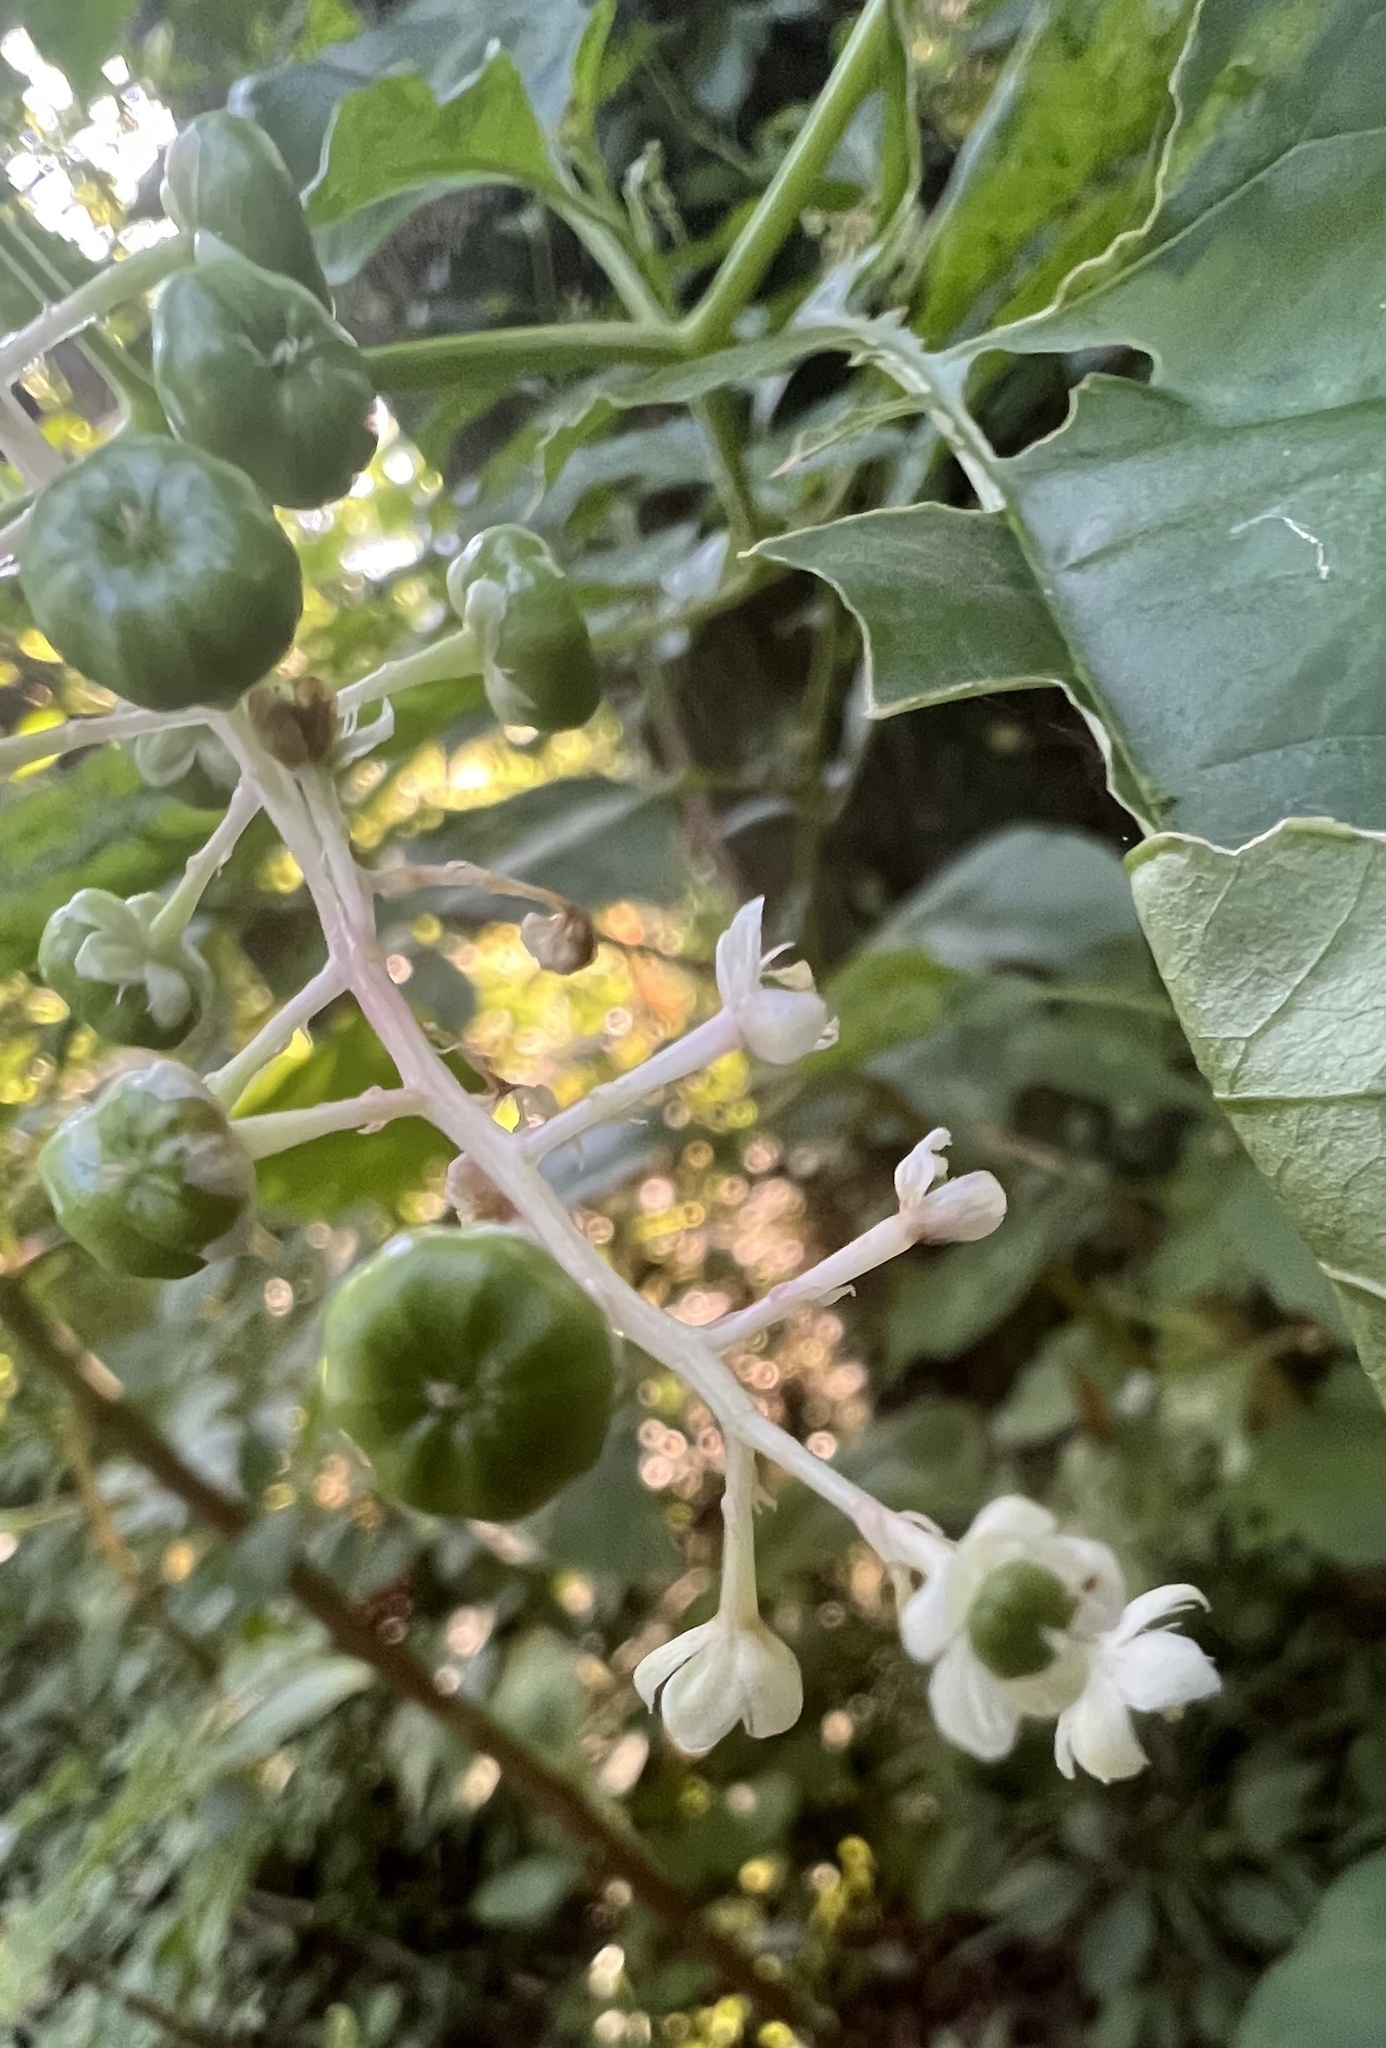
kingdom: Plantae
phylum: Tracheophyta
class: Magnoliopsida
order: Caryophyllales
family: Phytolaccaceae
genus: Phytolacca
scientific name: Phytolacca americana
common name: American pokeweed
